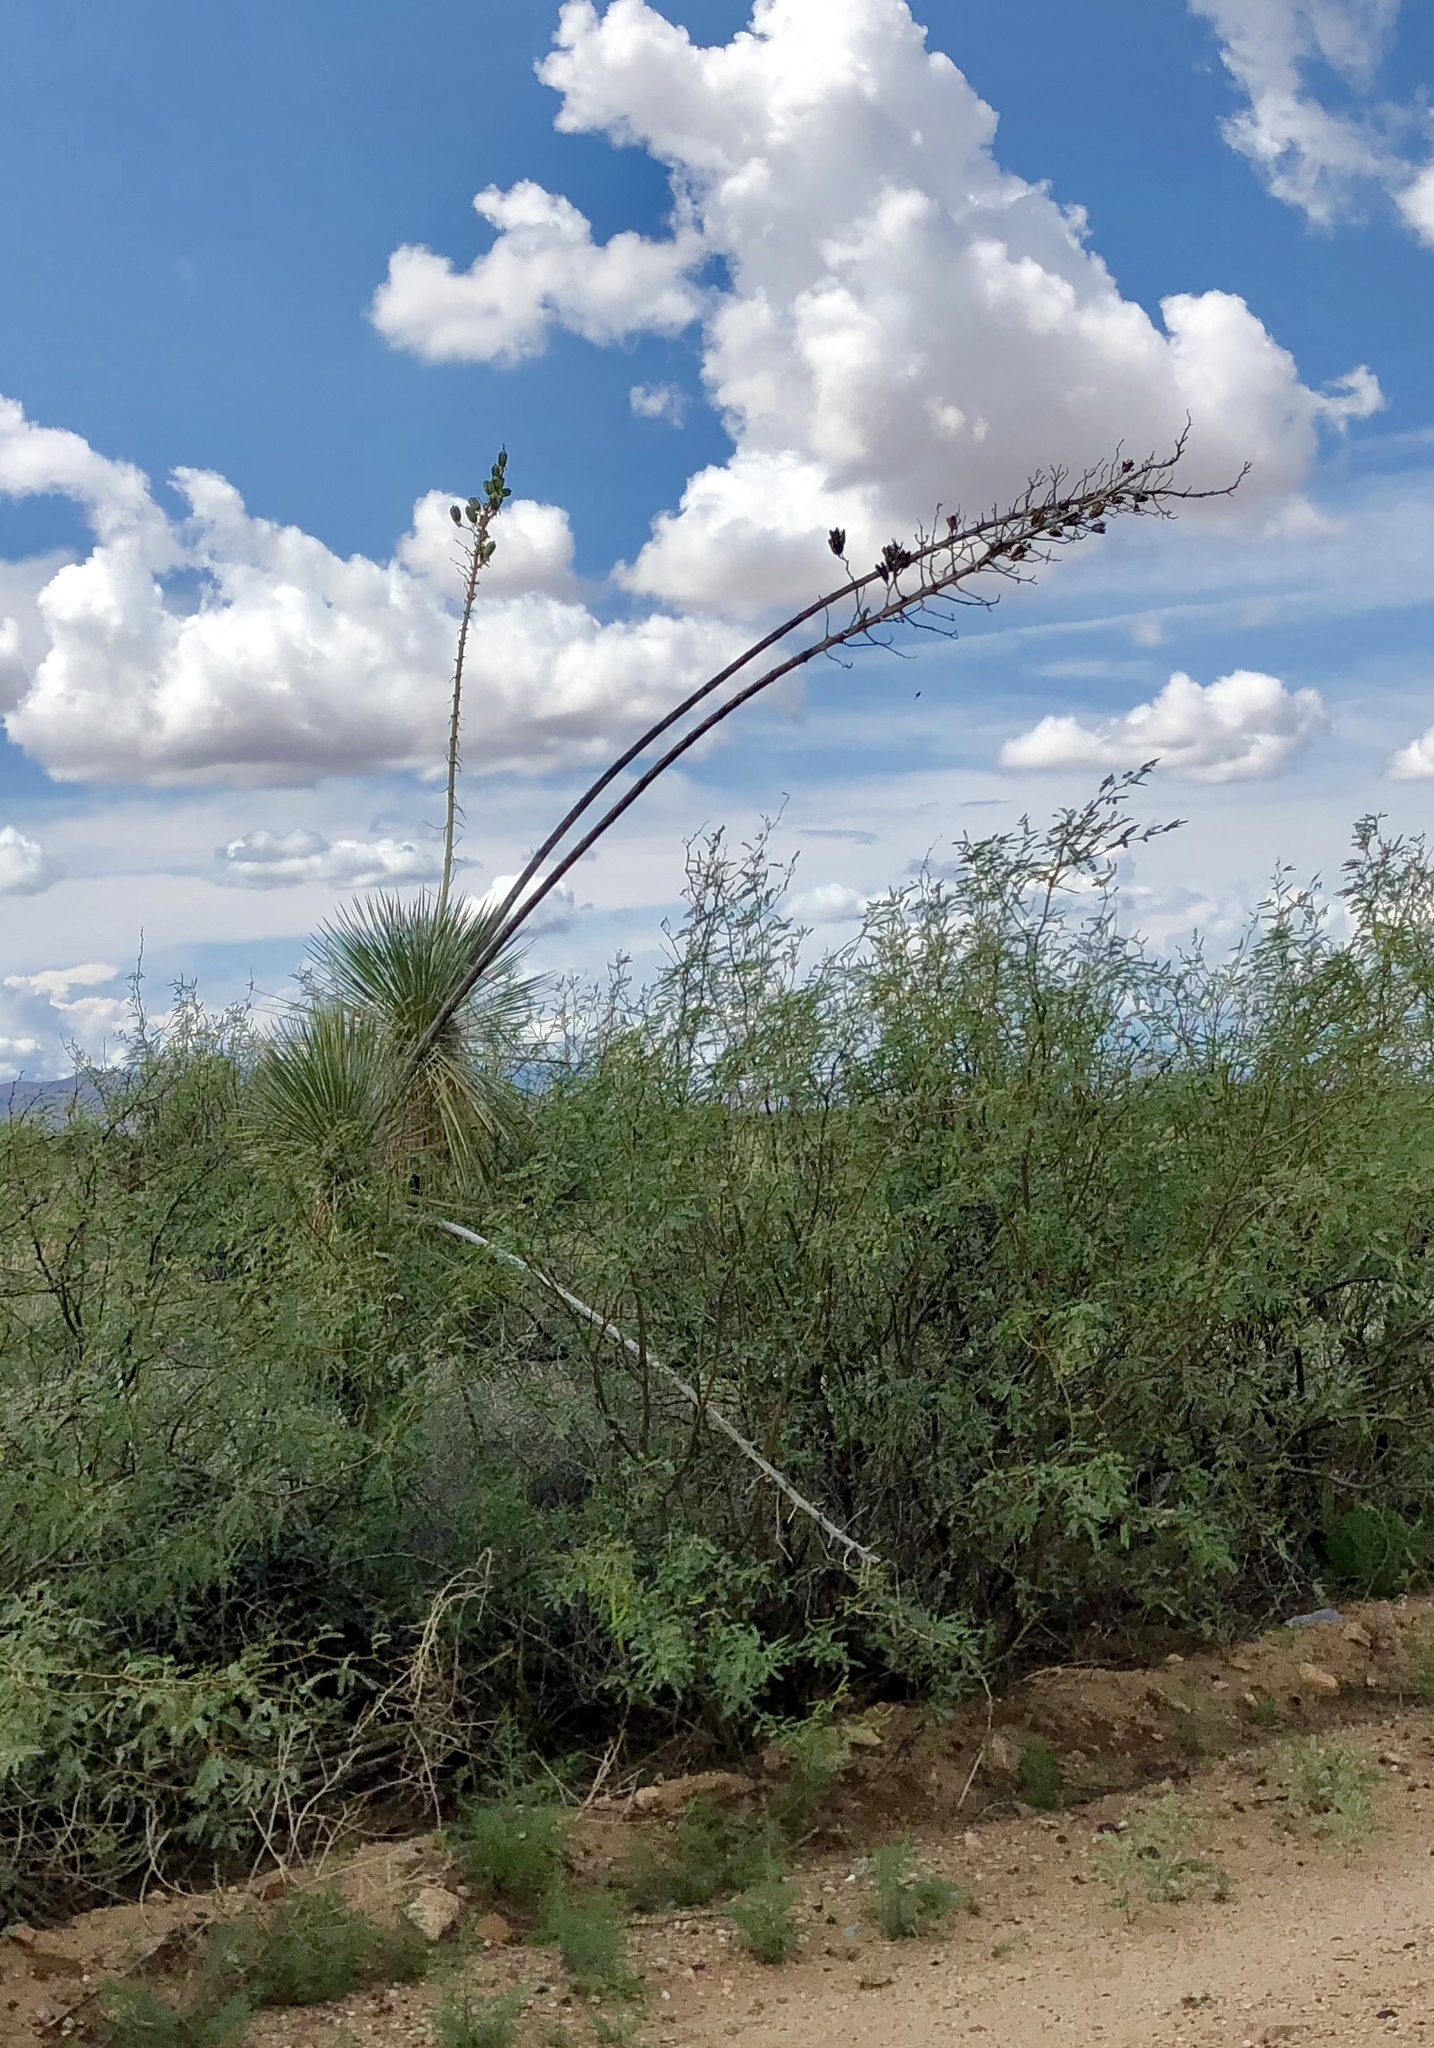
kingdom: Plantae
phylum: Tracheophyta
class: Liliopsida
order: Asparagales
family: Asparagaceae
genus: Yucca
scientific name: Yucca elata
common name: Palmella
